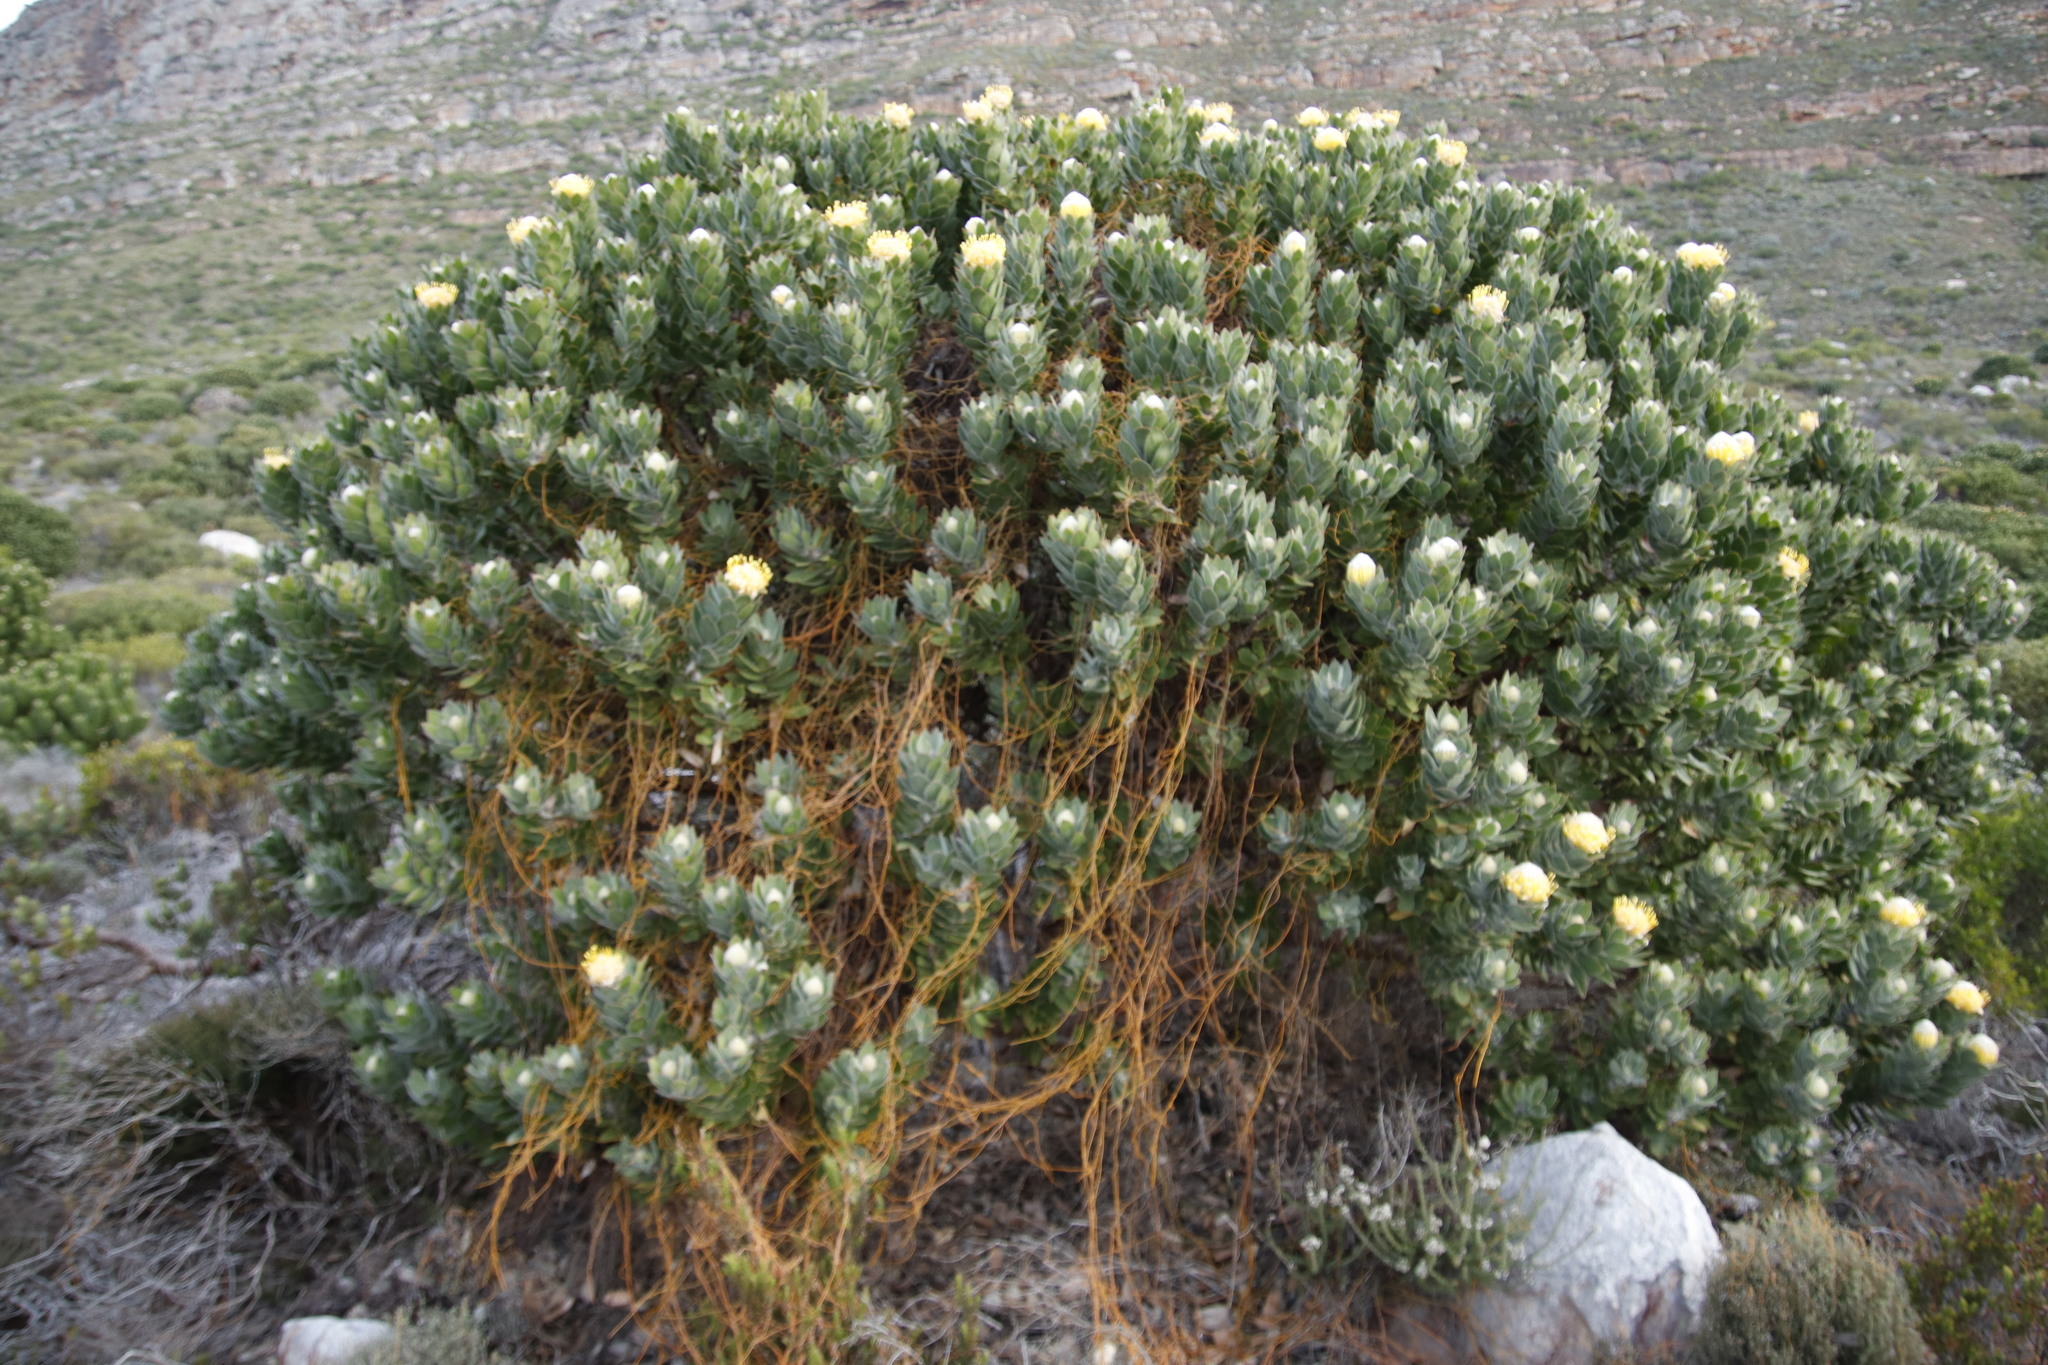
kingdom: Plantae
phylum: Tracheophyta
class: Magnoliopsida
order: Laurales
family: Lauraceae
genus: Cassytha
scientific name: Cassytha ciliolata
